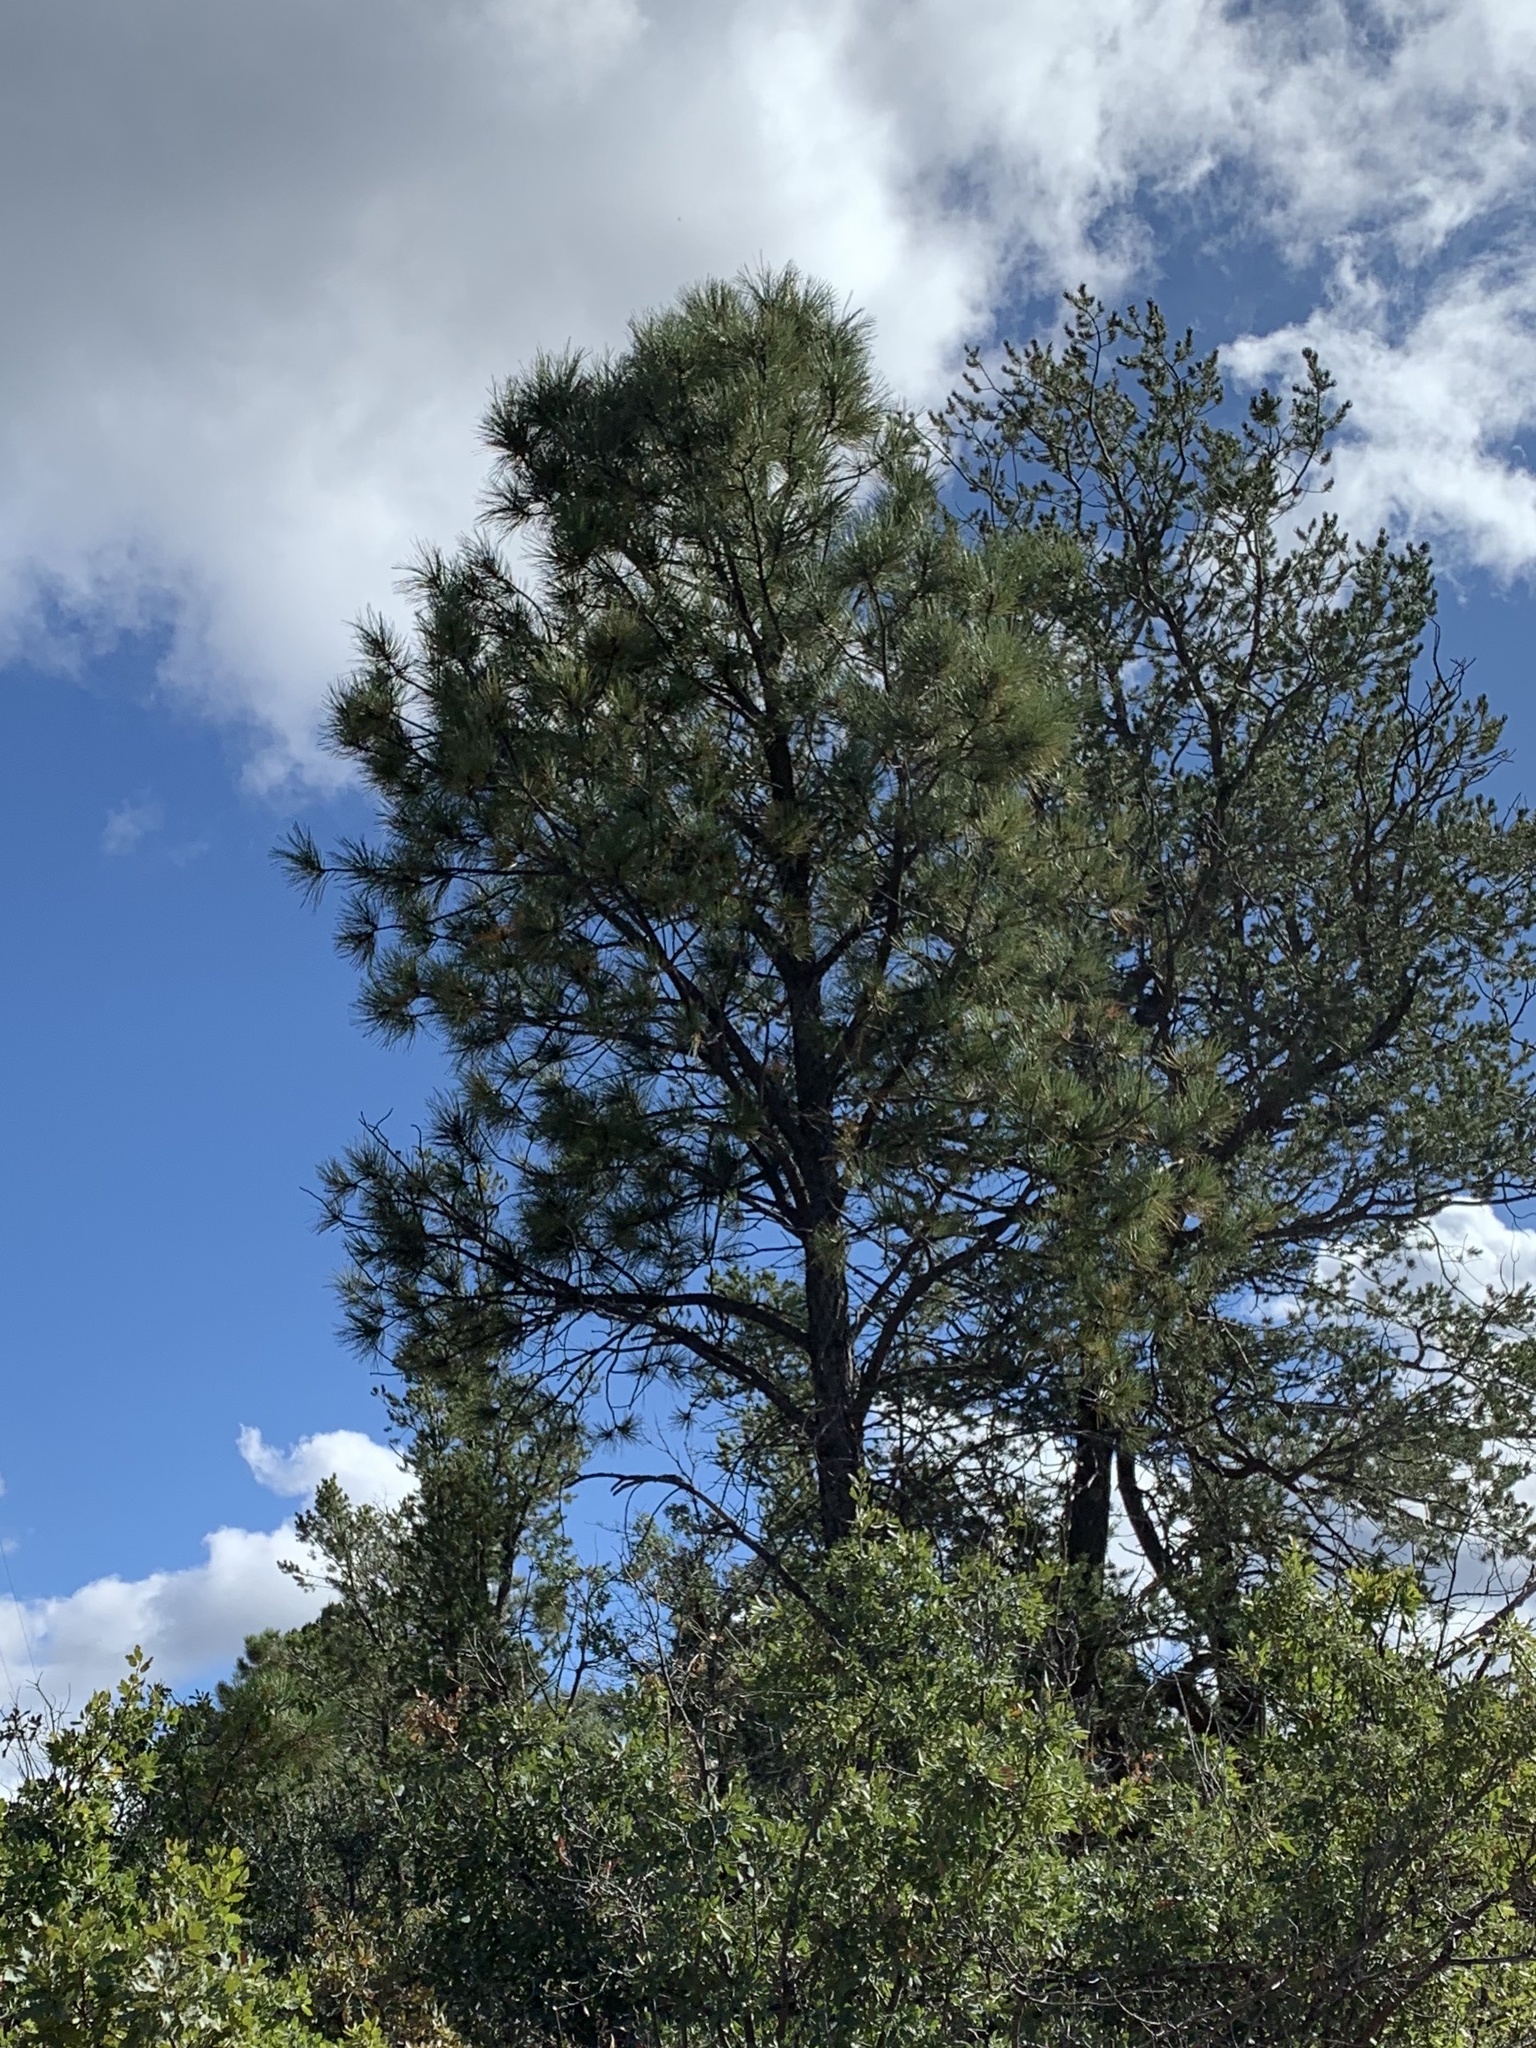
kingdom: Plantae
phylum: Tracheophyta
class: Pinopsida
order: Pinales
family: Pinaceae
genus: Pinus
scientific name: Pinus ponderosa
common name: Western yellow-pine
